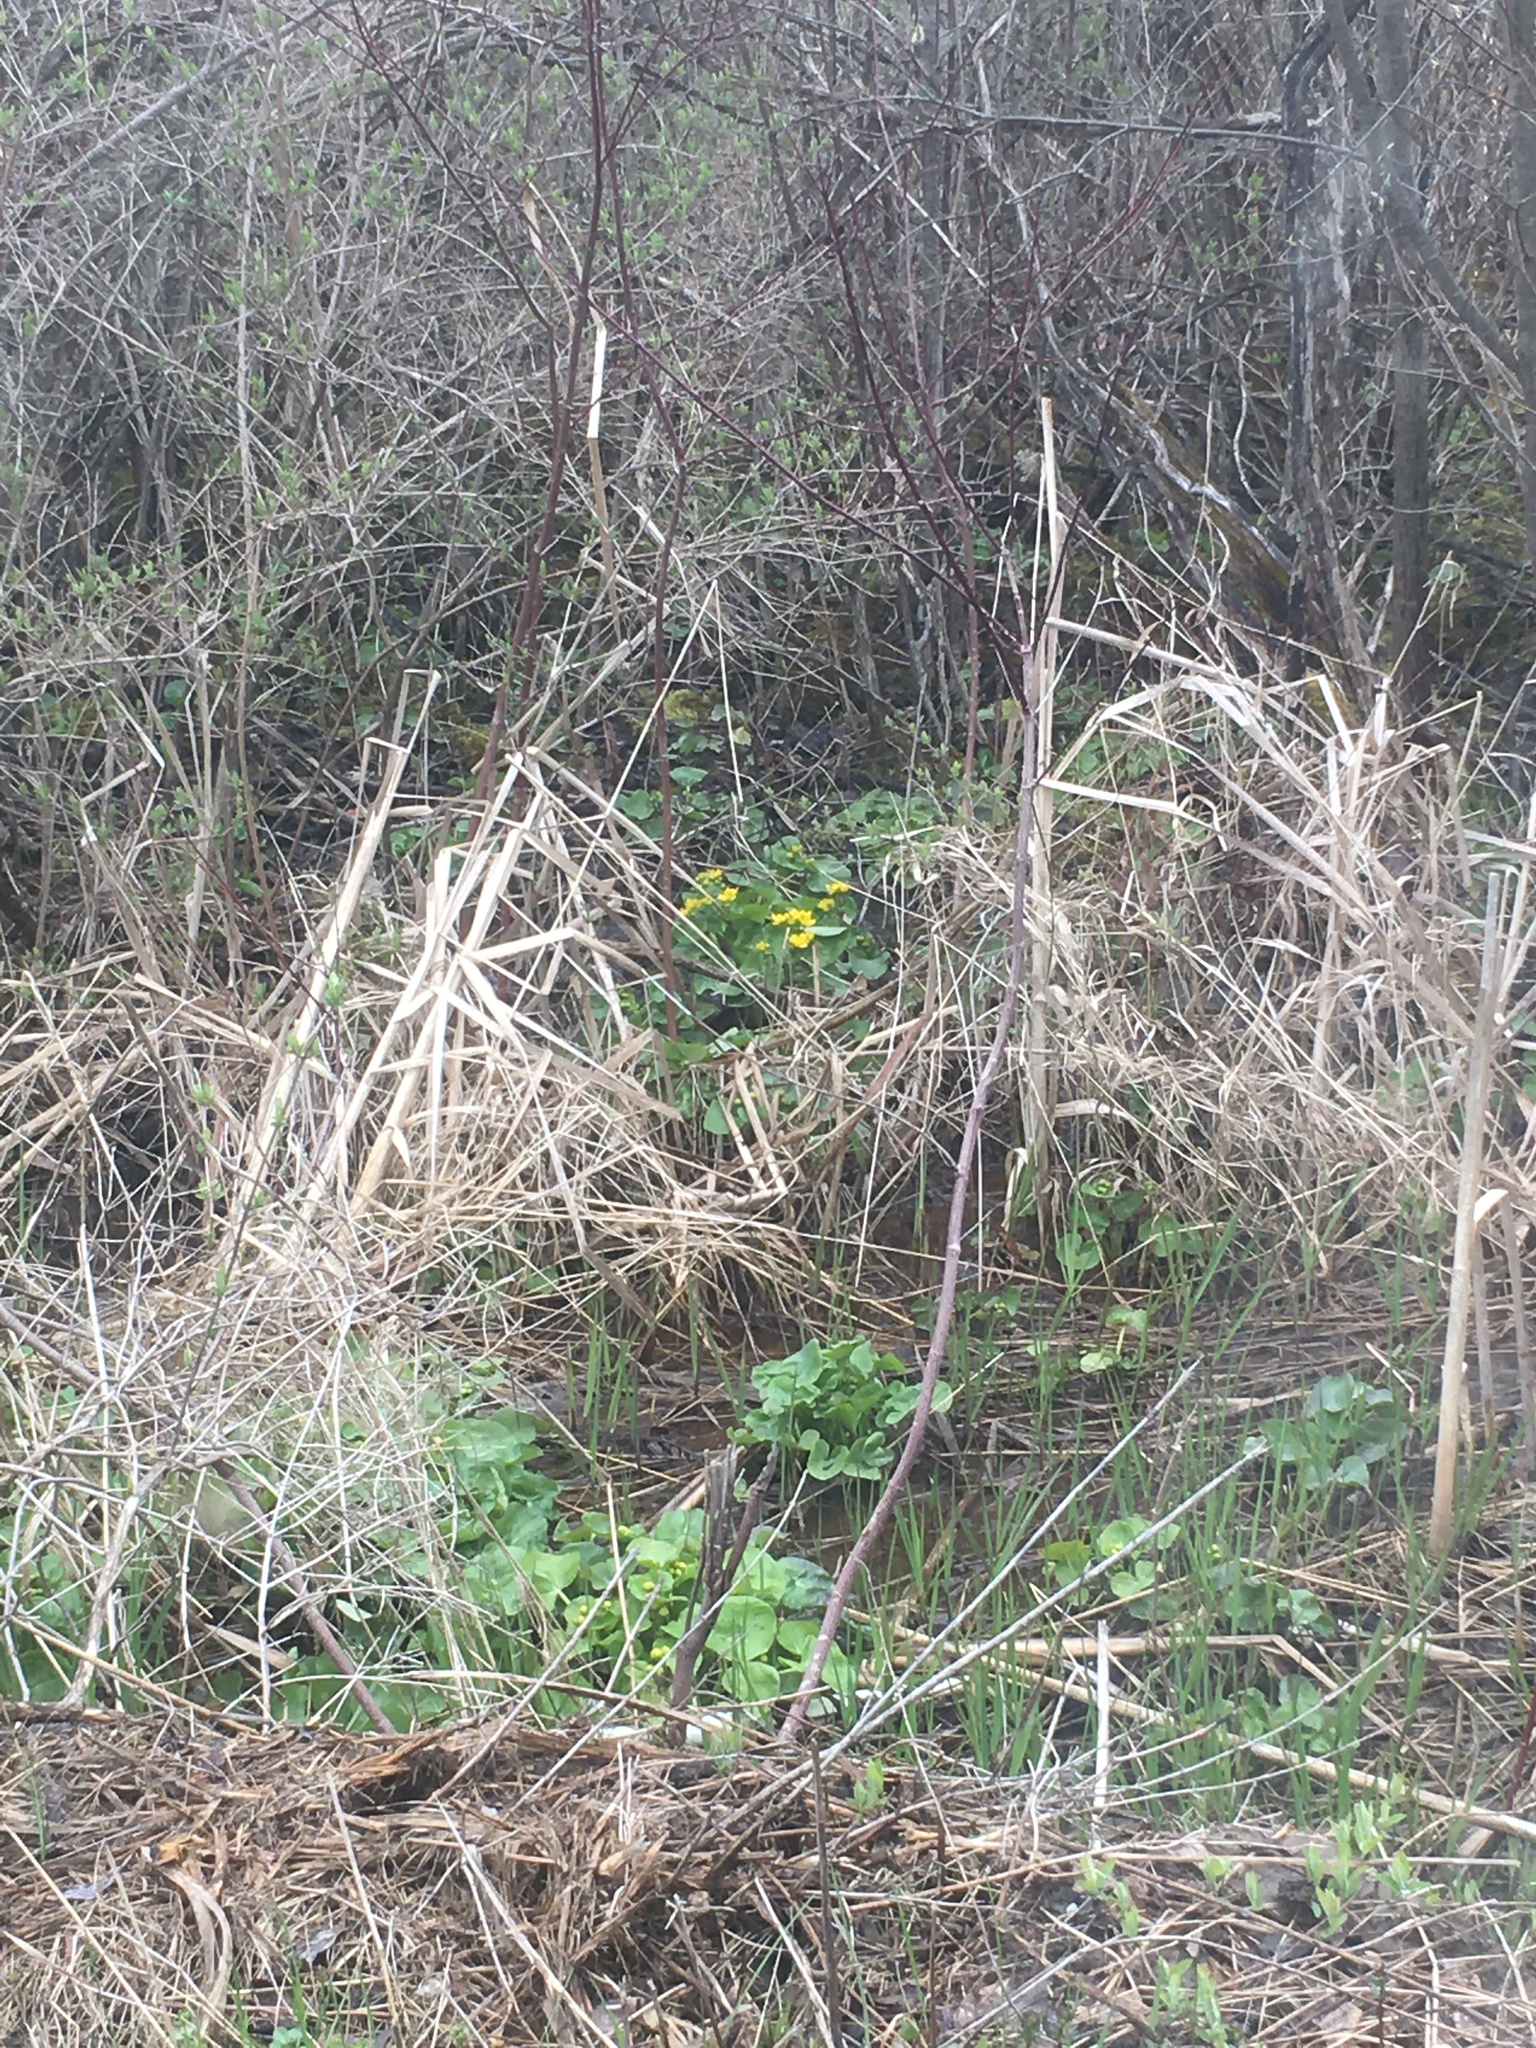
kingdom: Plantae
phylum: Tracheophyta
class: Magnoliopsida
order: Ranunculales
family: Ranunculaceae
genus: Caltha
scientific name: Caltha palustris
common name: Marsh marigold
